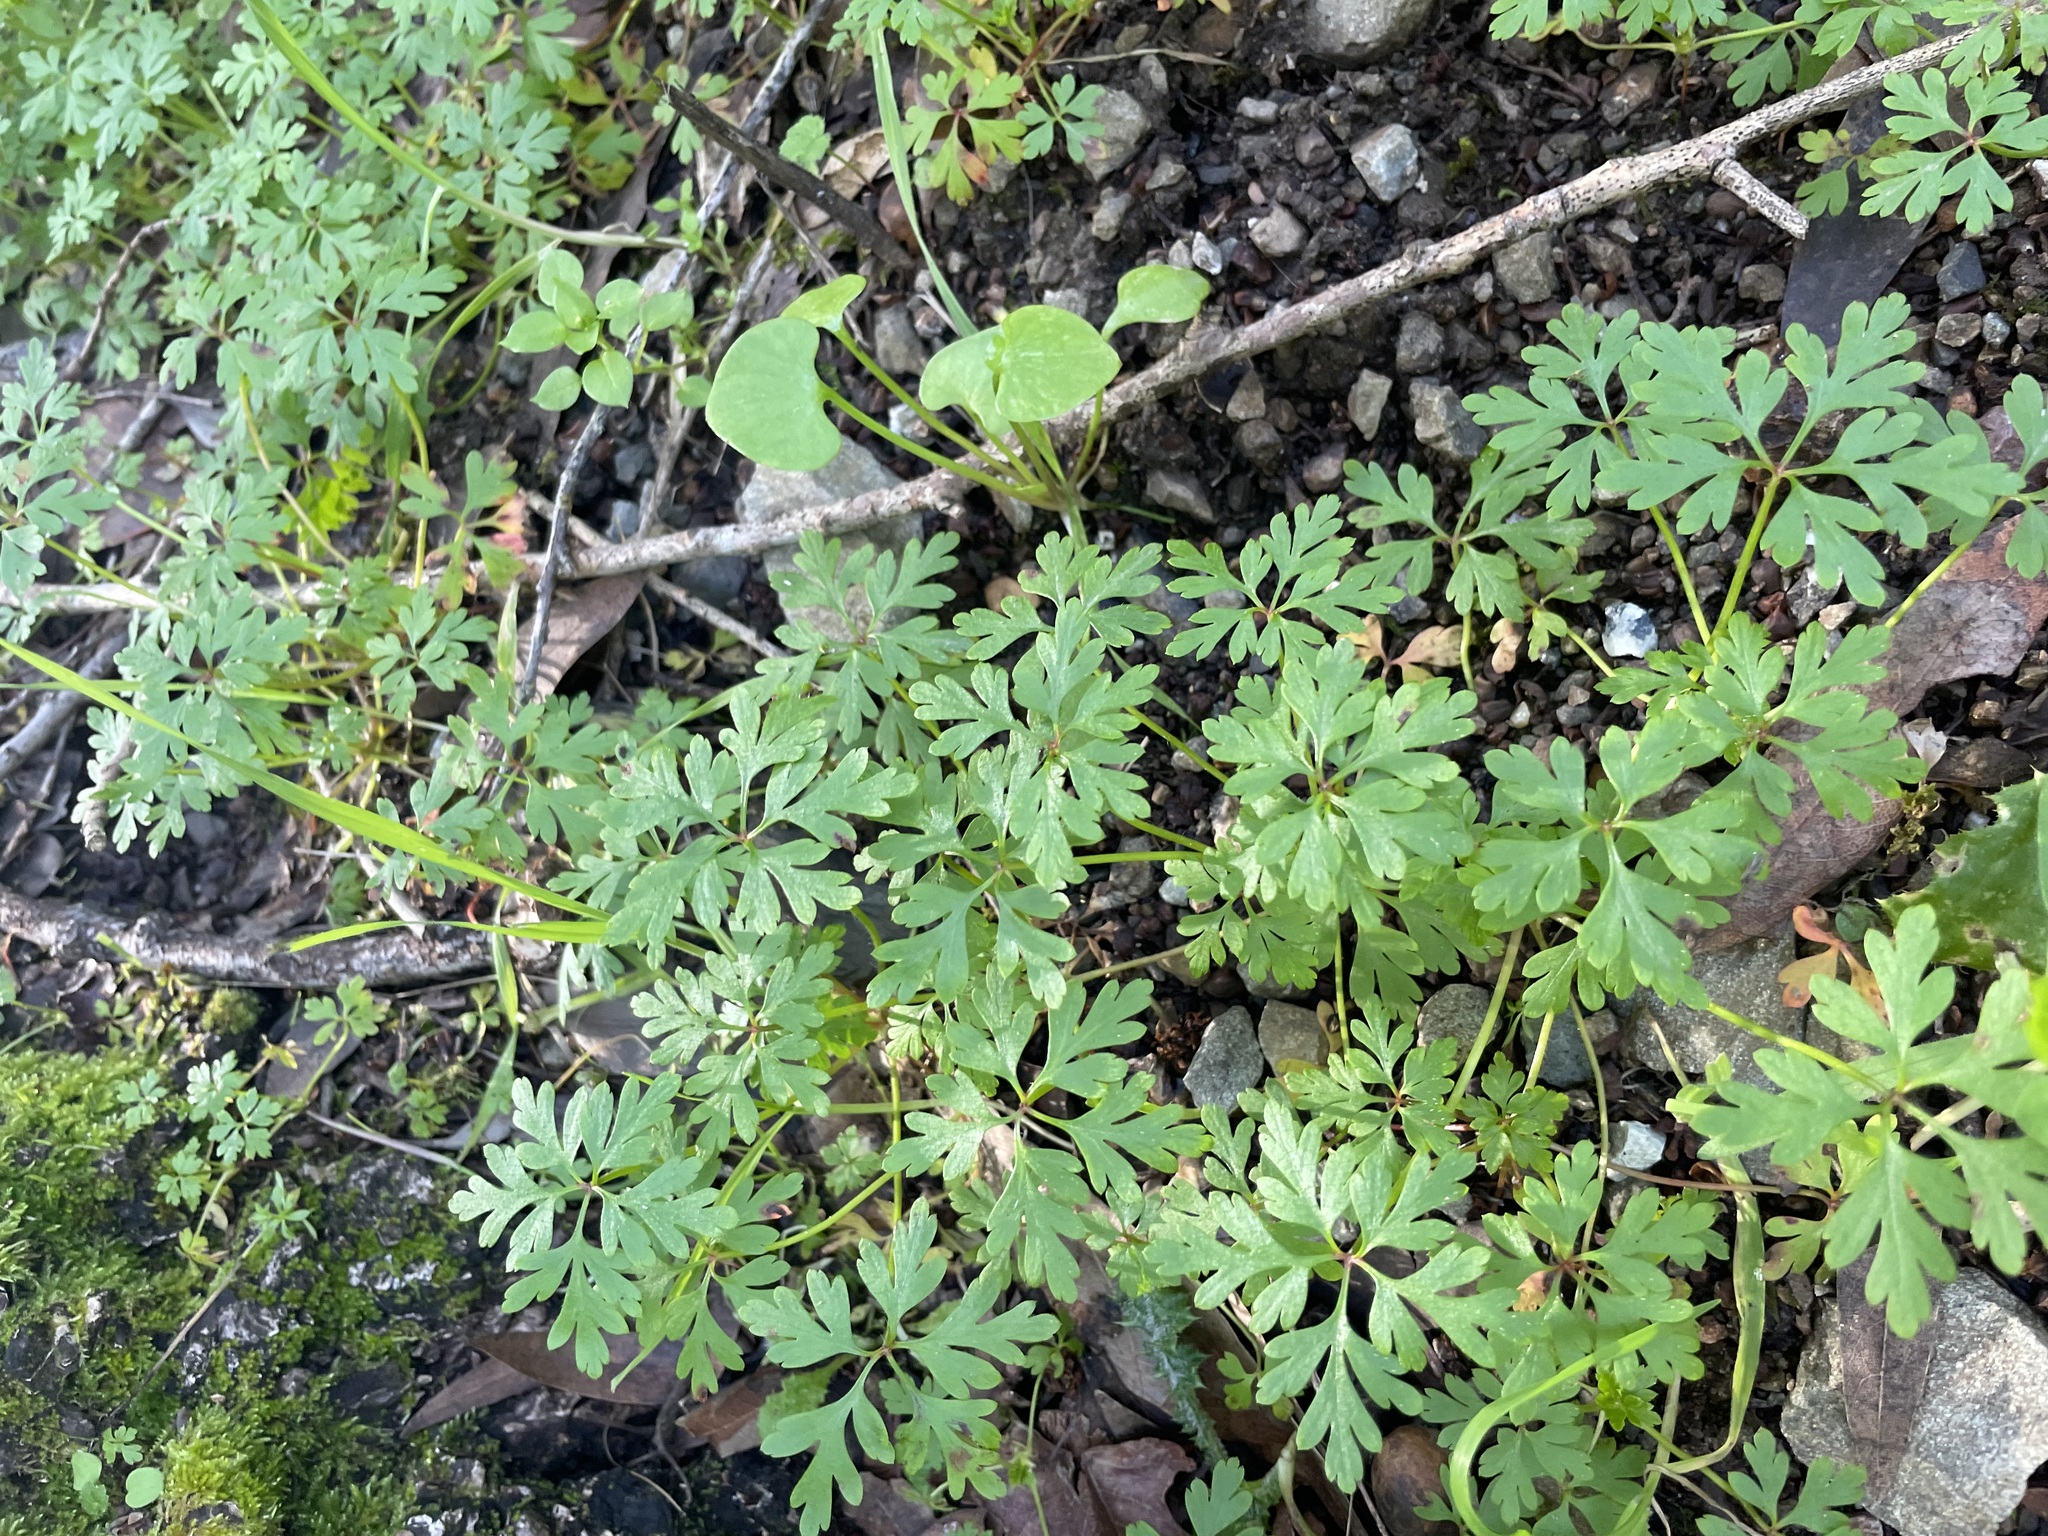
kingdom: Plantae
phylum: Tracheophyta
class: Magnoliopsida
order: Geraniales
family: Geraniaceae
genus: Geranium
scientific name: Geranium
